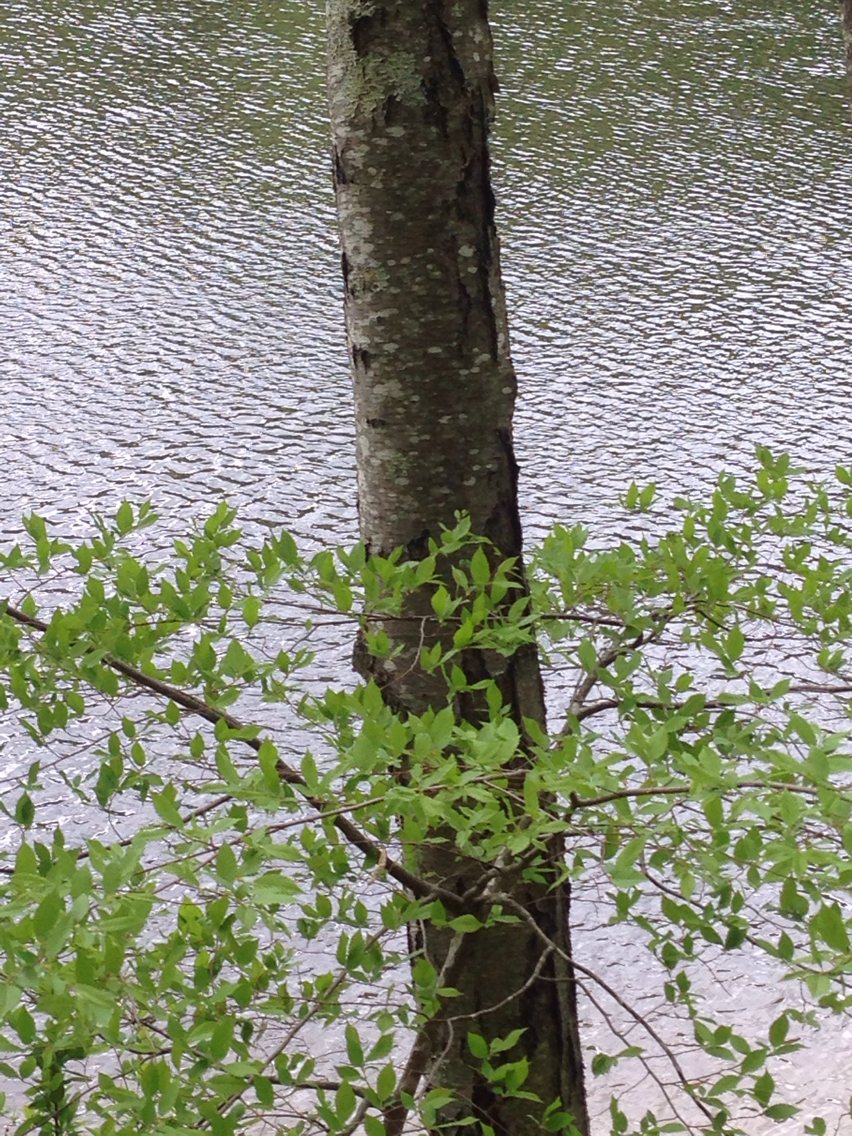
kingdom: Plantae
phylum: Tracheophyta
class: Magnoliopsida
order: Fagales
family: Betulaceae
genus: Betula
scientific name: Betula lenta
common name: Black birch
